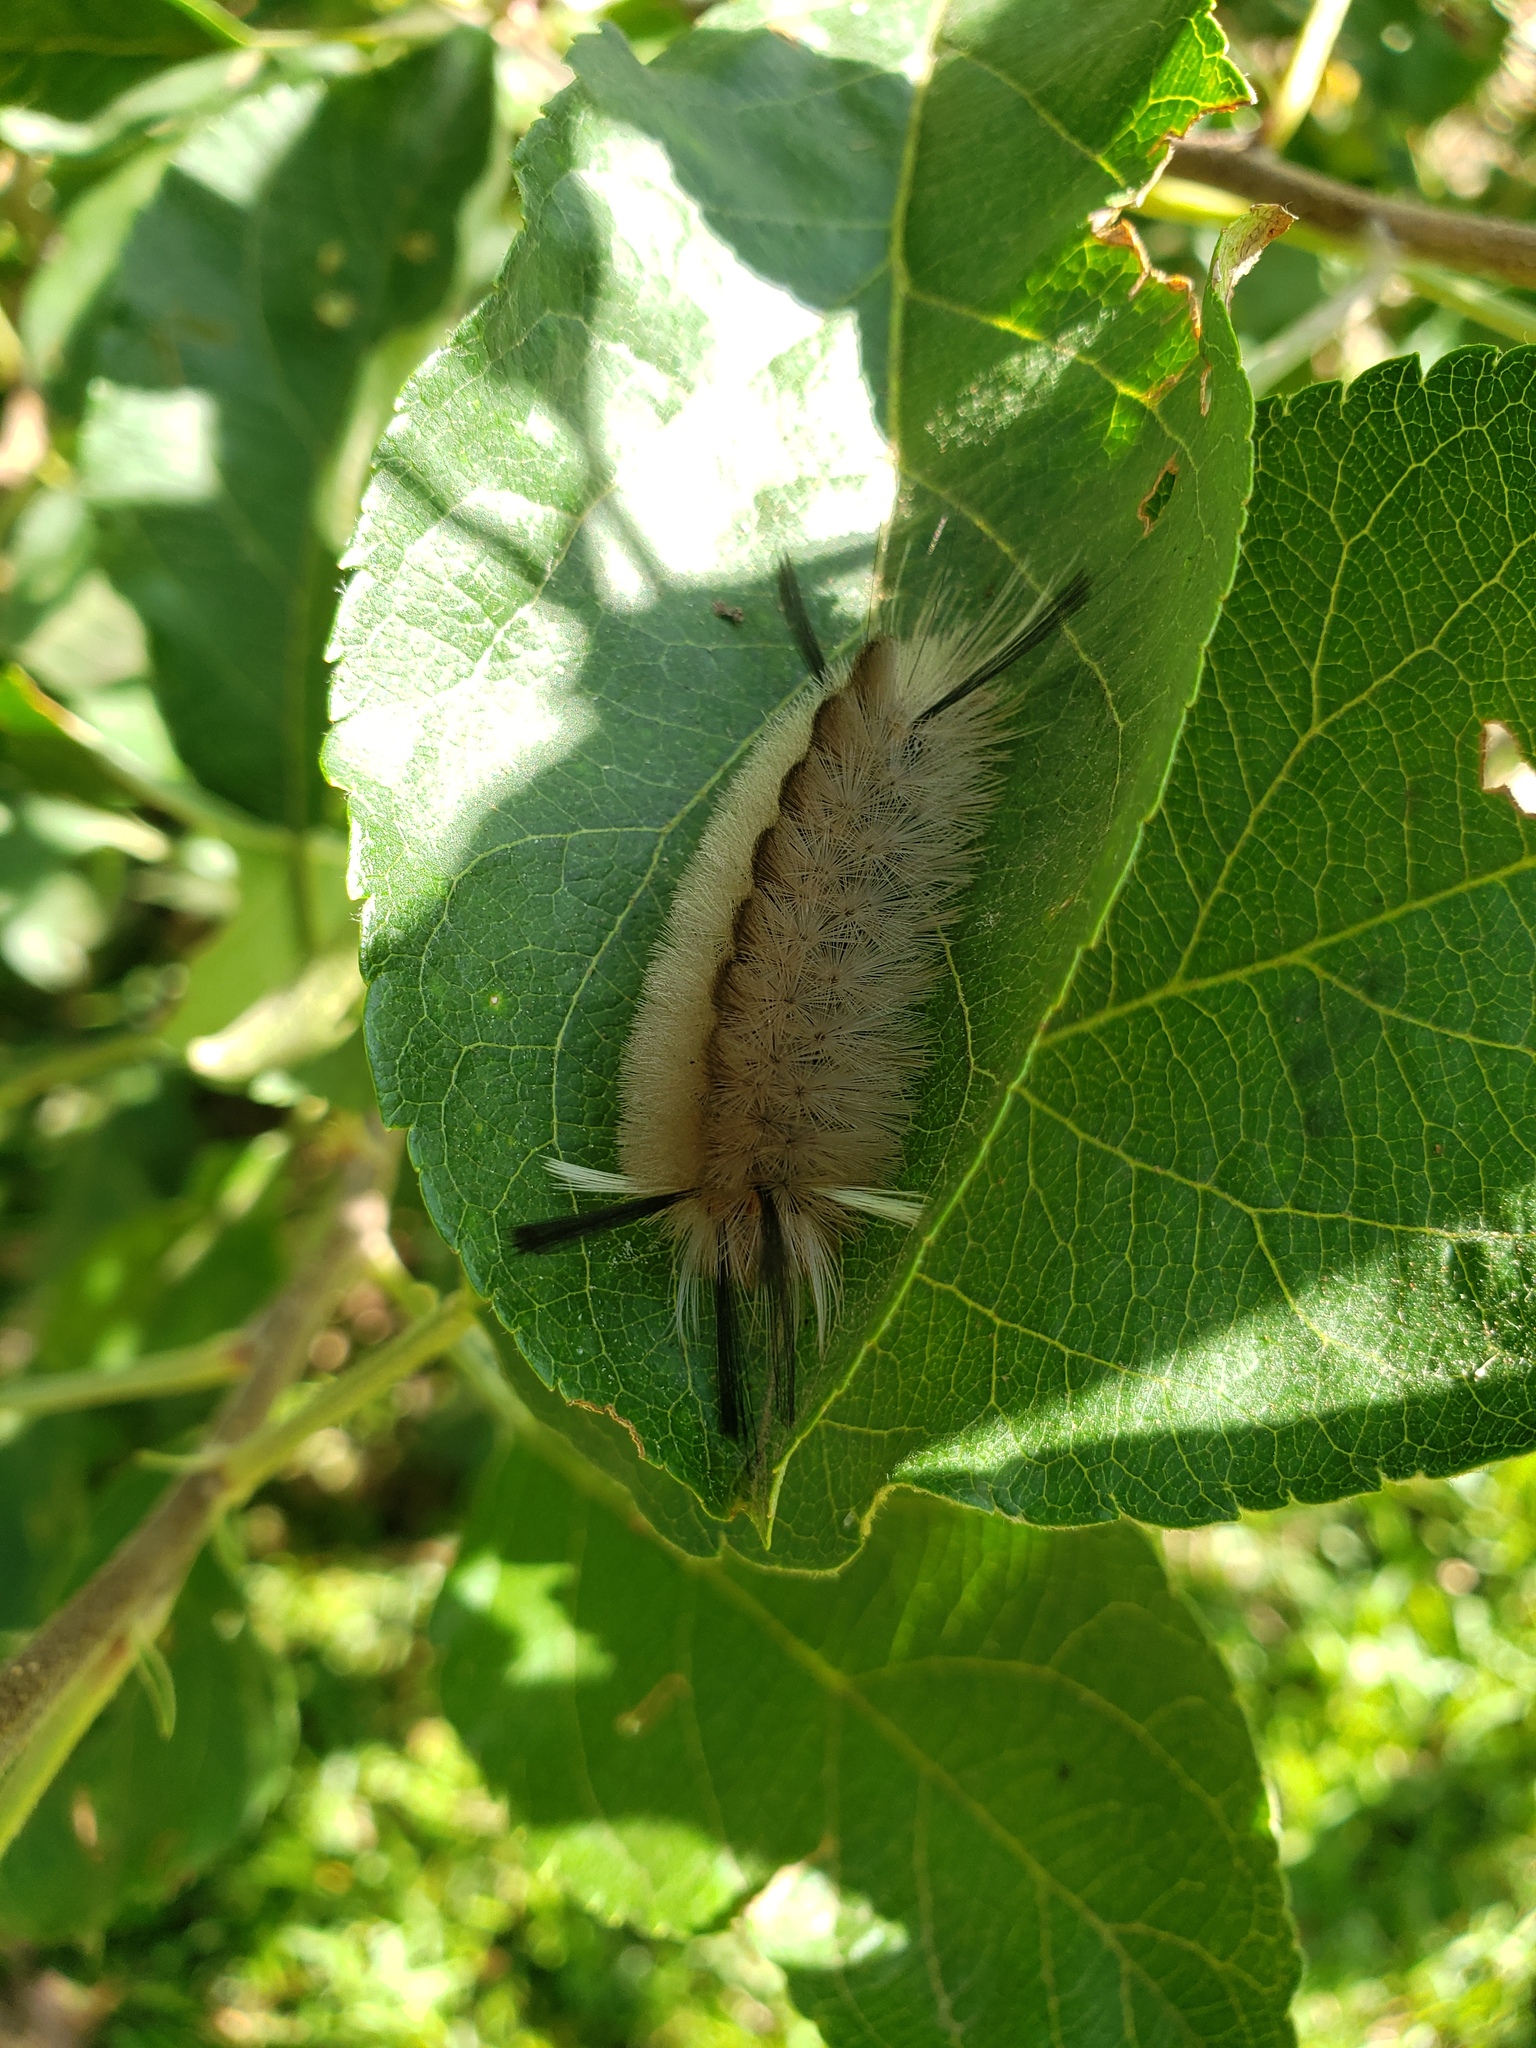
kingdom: Animalia
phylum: Arthropoda
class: Insecta
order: Lepidoptera
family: Erebidae
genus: Halysidota
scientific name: Halysidota tessellaris
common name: Banded tussock moth
